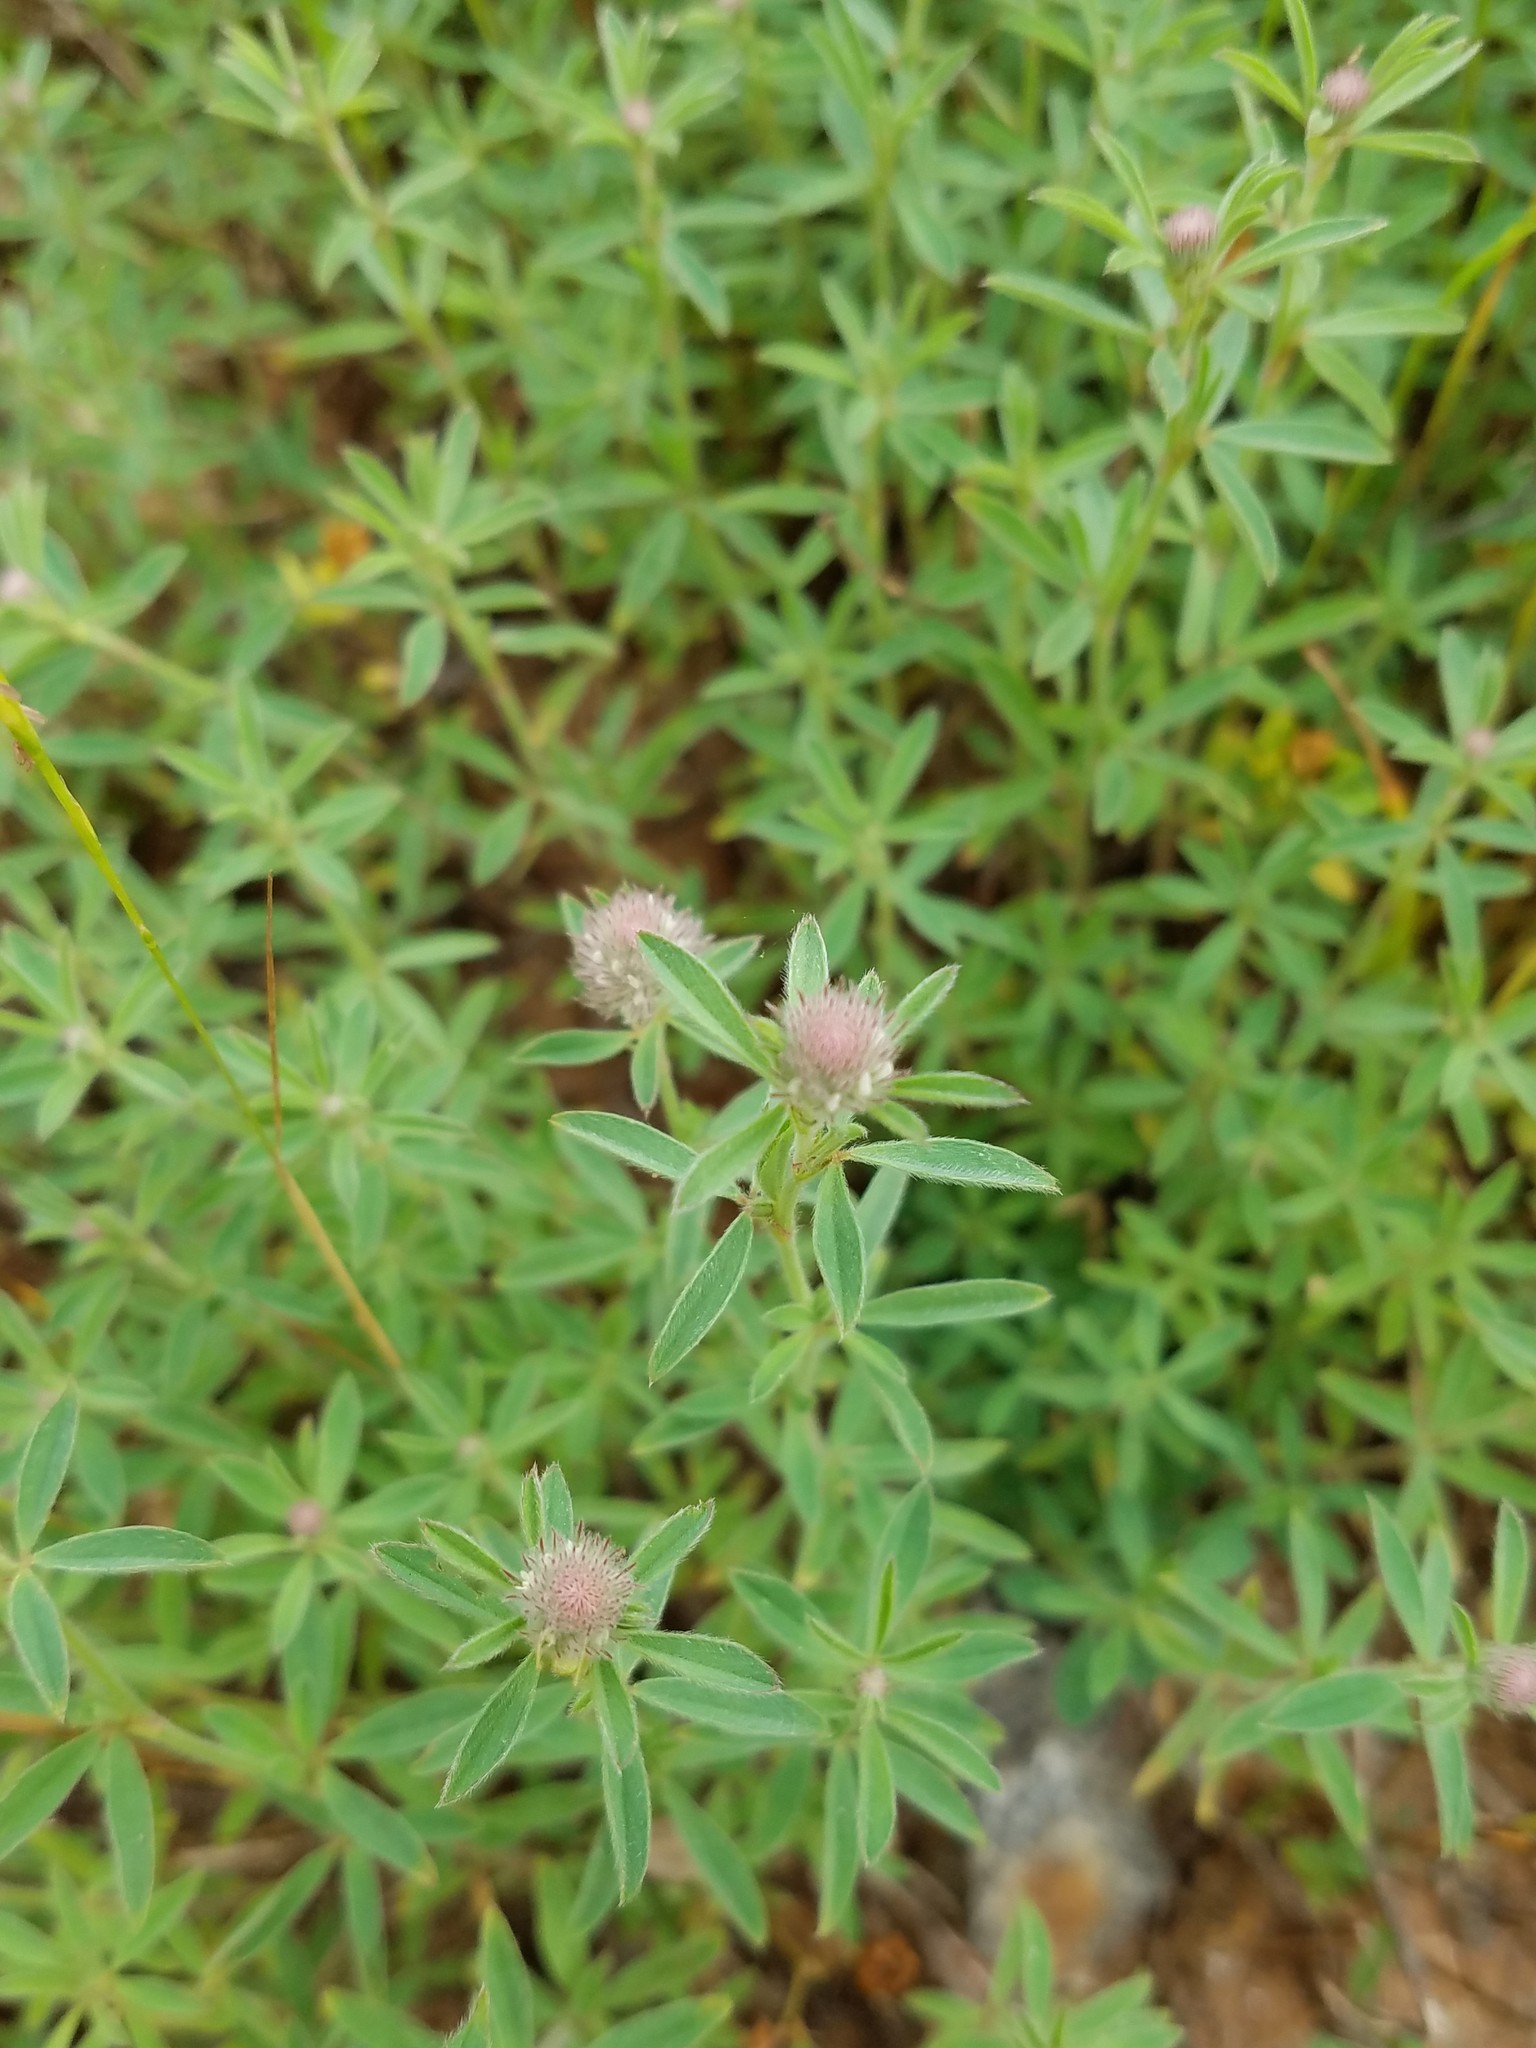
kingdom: Plantae
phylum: Tracheophyta
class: Magnoliopsida
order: Fabales
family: Fabaceae
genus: Trifolium
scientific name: Trifolium arvense
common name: Hare's-foot clover
